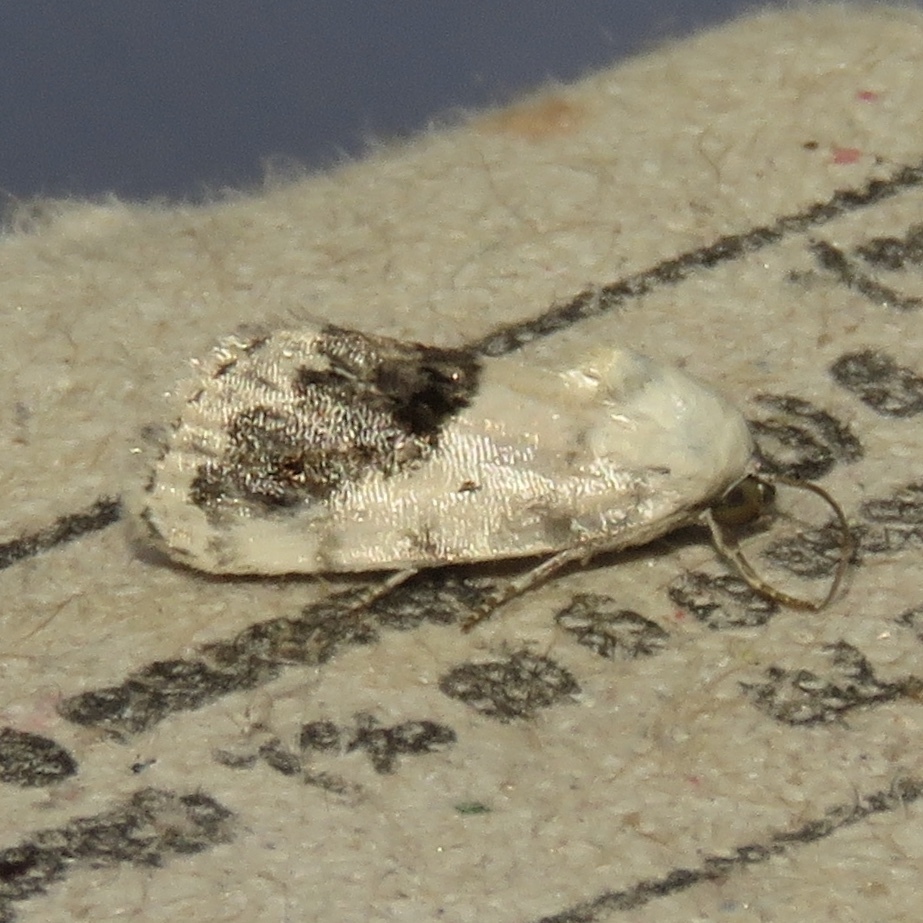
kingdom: Animalia
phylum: Arthropoda
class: Insecta
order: Lepidoptera
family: Noctuidae
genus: Acontia
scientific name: Acontia erastrioides
